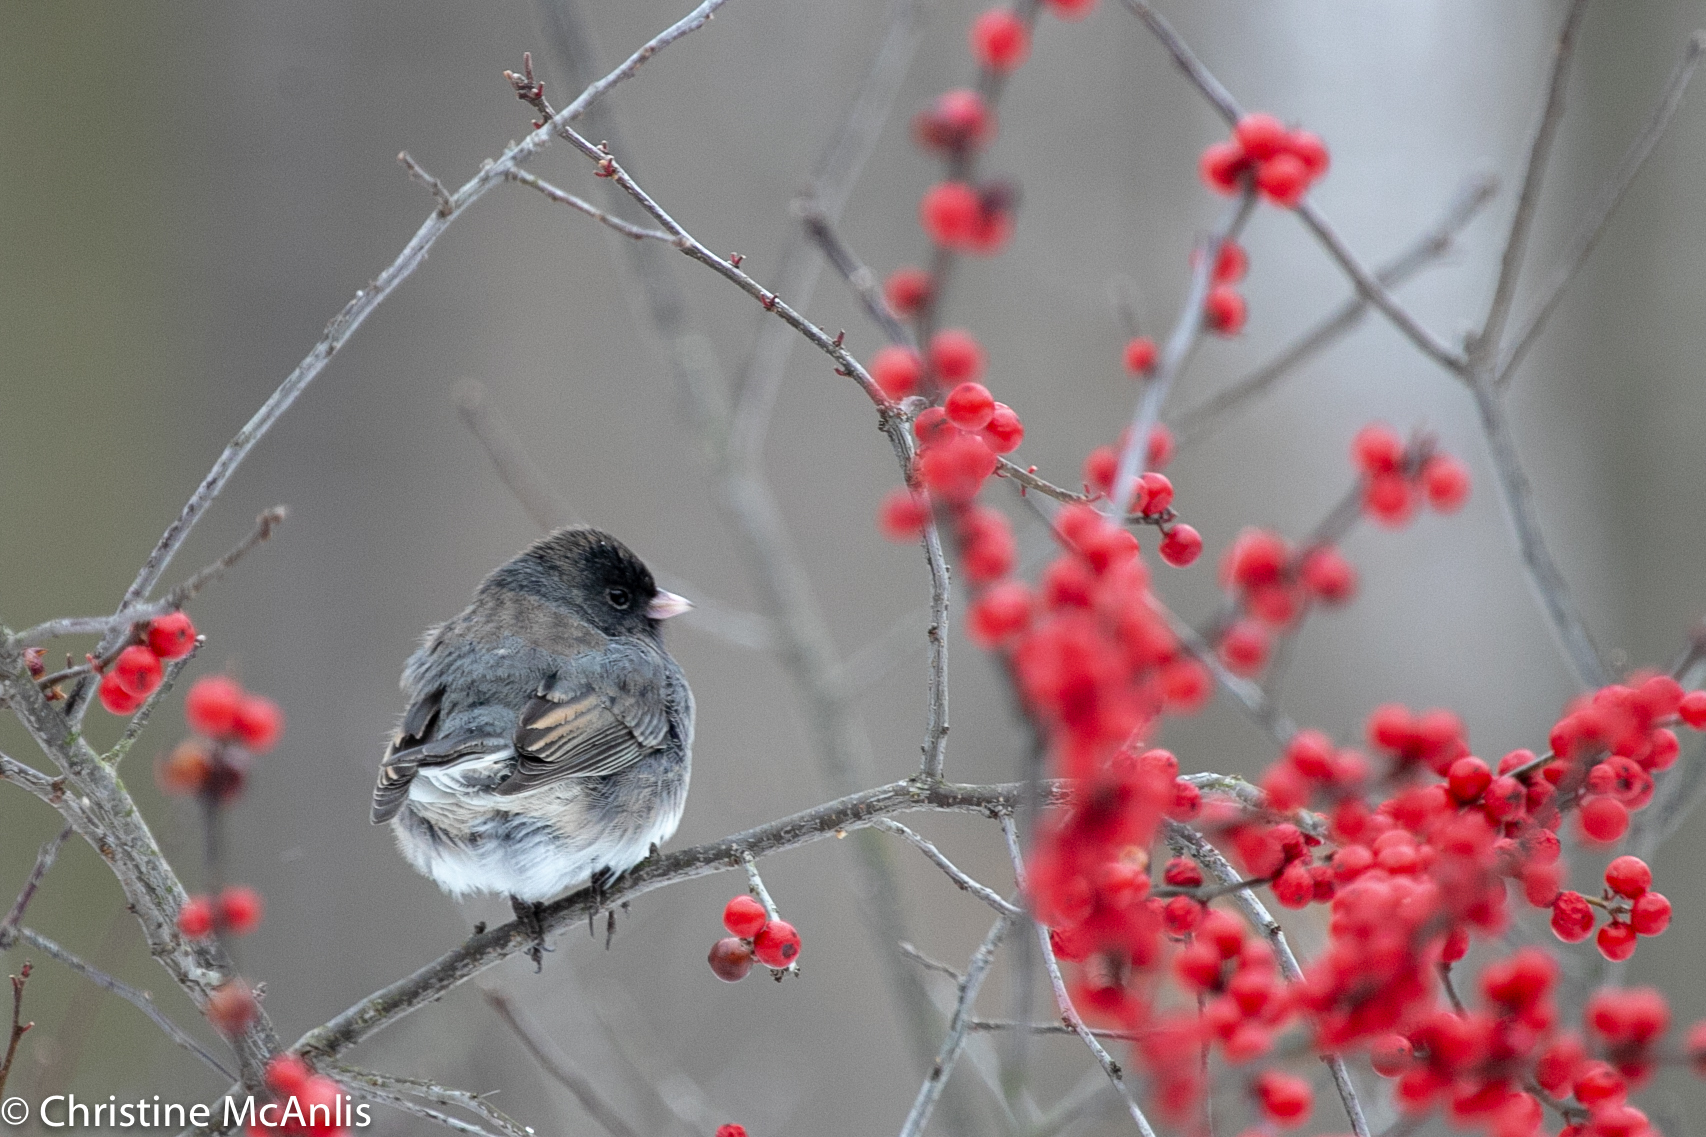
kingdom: Animalia
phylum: Chordata
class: Aves
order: Passeriformes
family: Passerellidae
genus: Junco
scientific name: Junco hyemalis
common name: Dark-eyed junco
